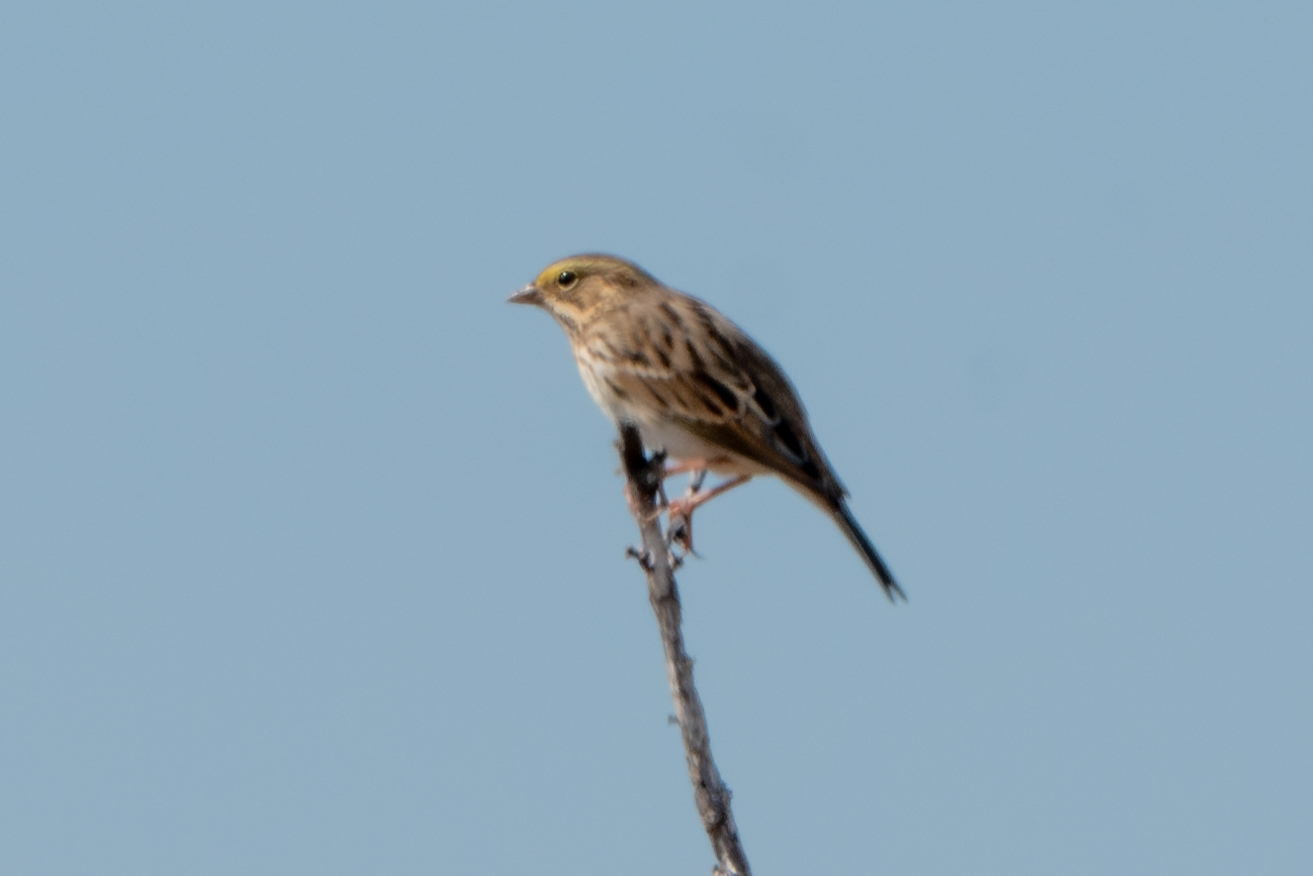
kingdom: Animalia
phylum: Chordata
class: Aves
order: Passeriformes
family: Passerellidae
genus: Passerculus
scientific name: Passerculus sandwichensis
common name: Savannah sparrow
